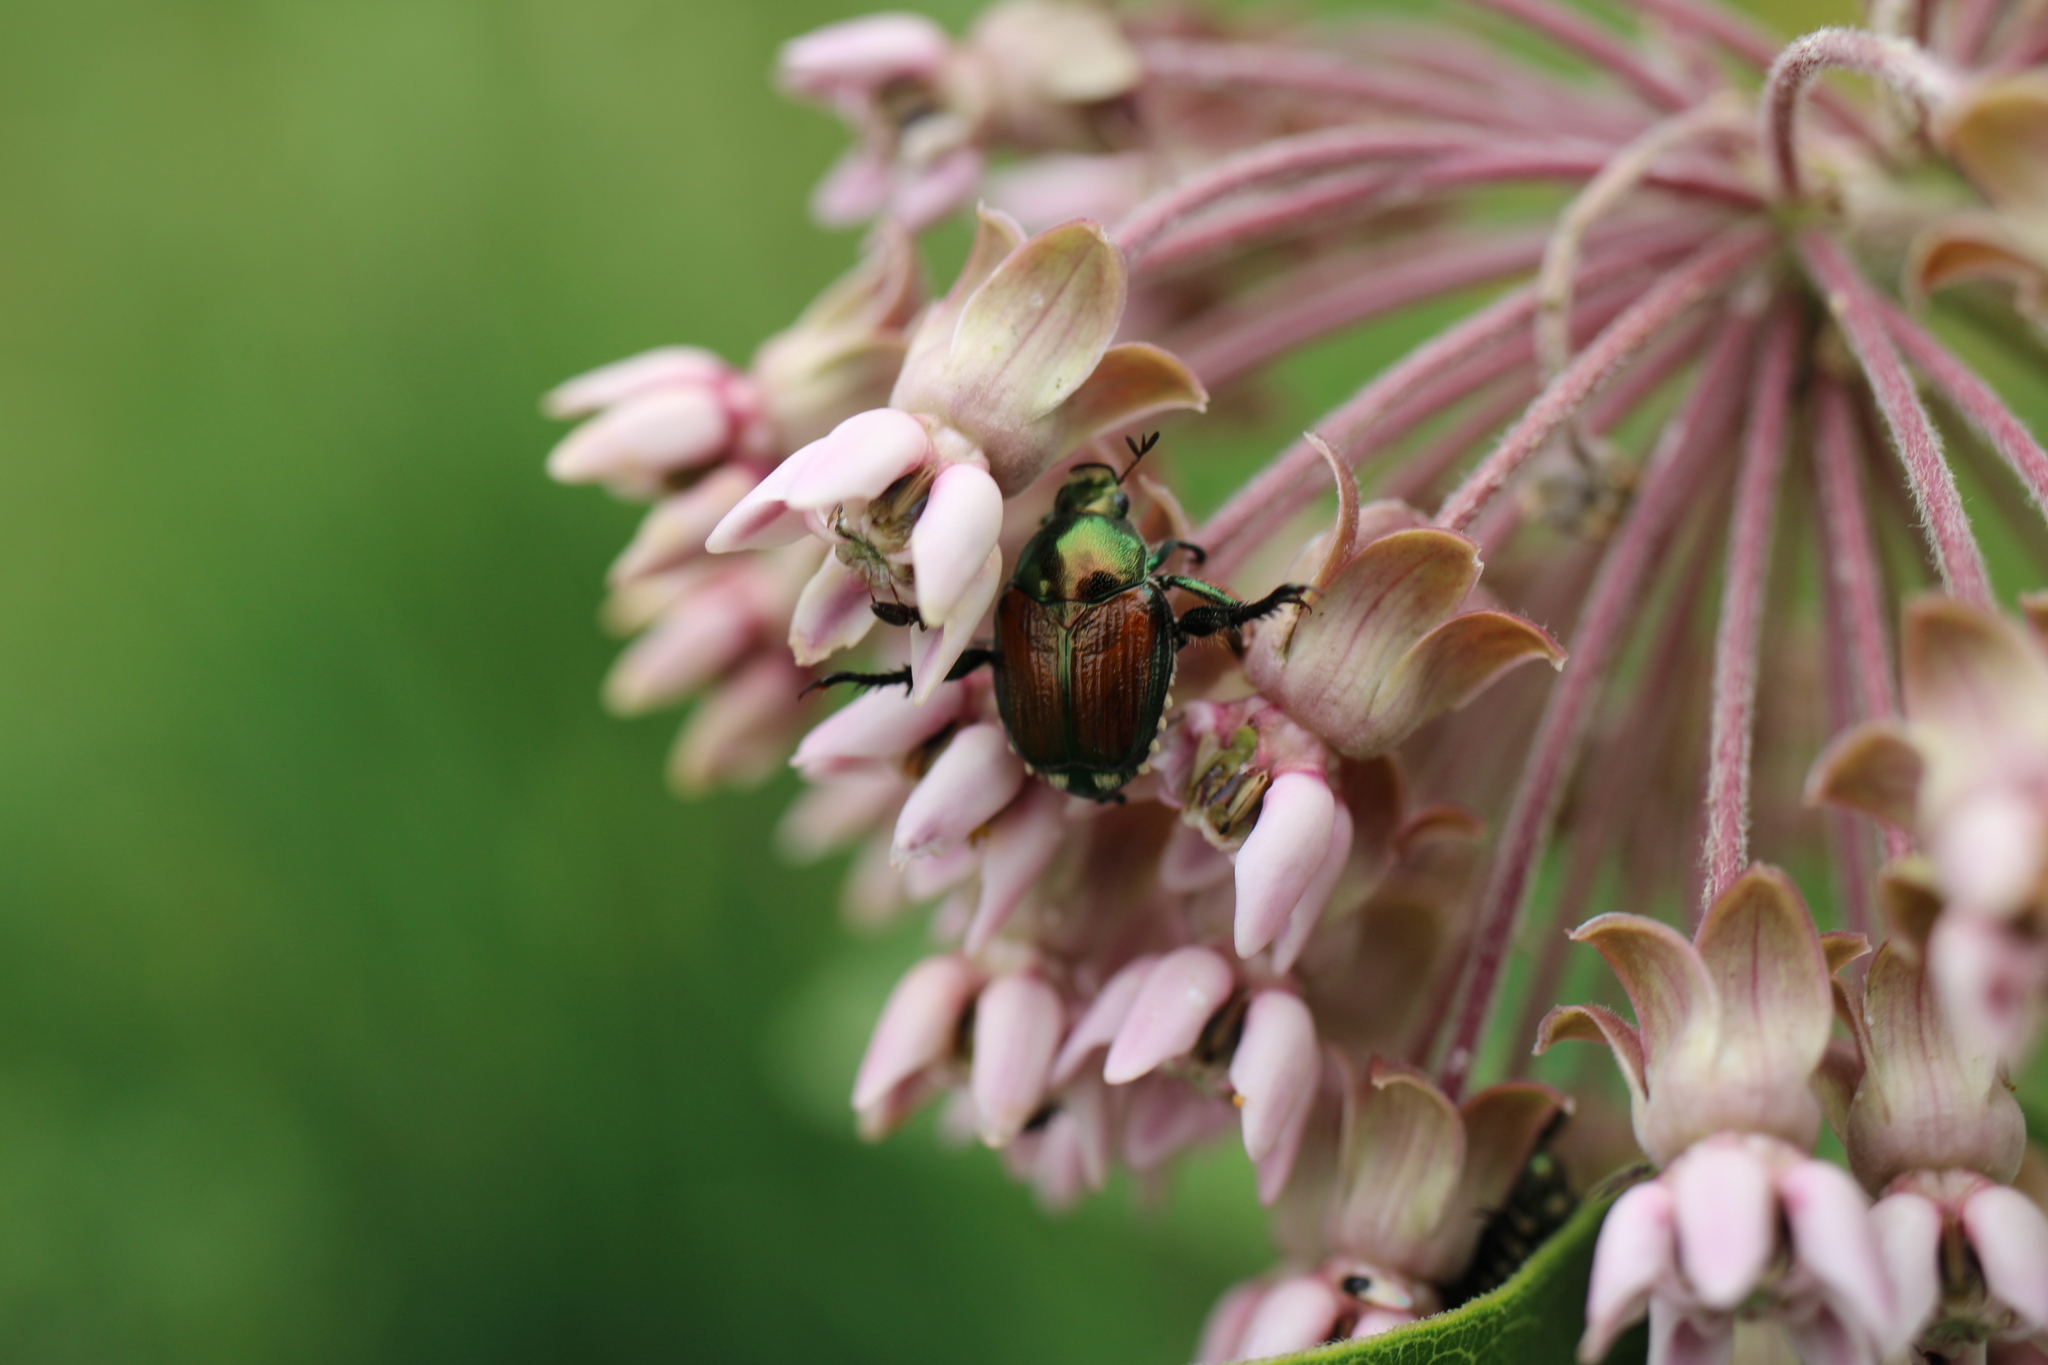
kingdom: Animalia
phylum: Arthropoda
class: Insecta
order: Coleoptera
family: Scarabaeidae
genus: Popillia
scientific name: Popillia japonica
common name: Japanese beetle
